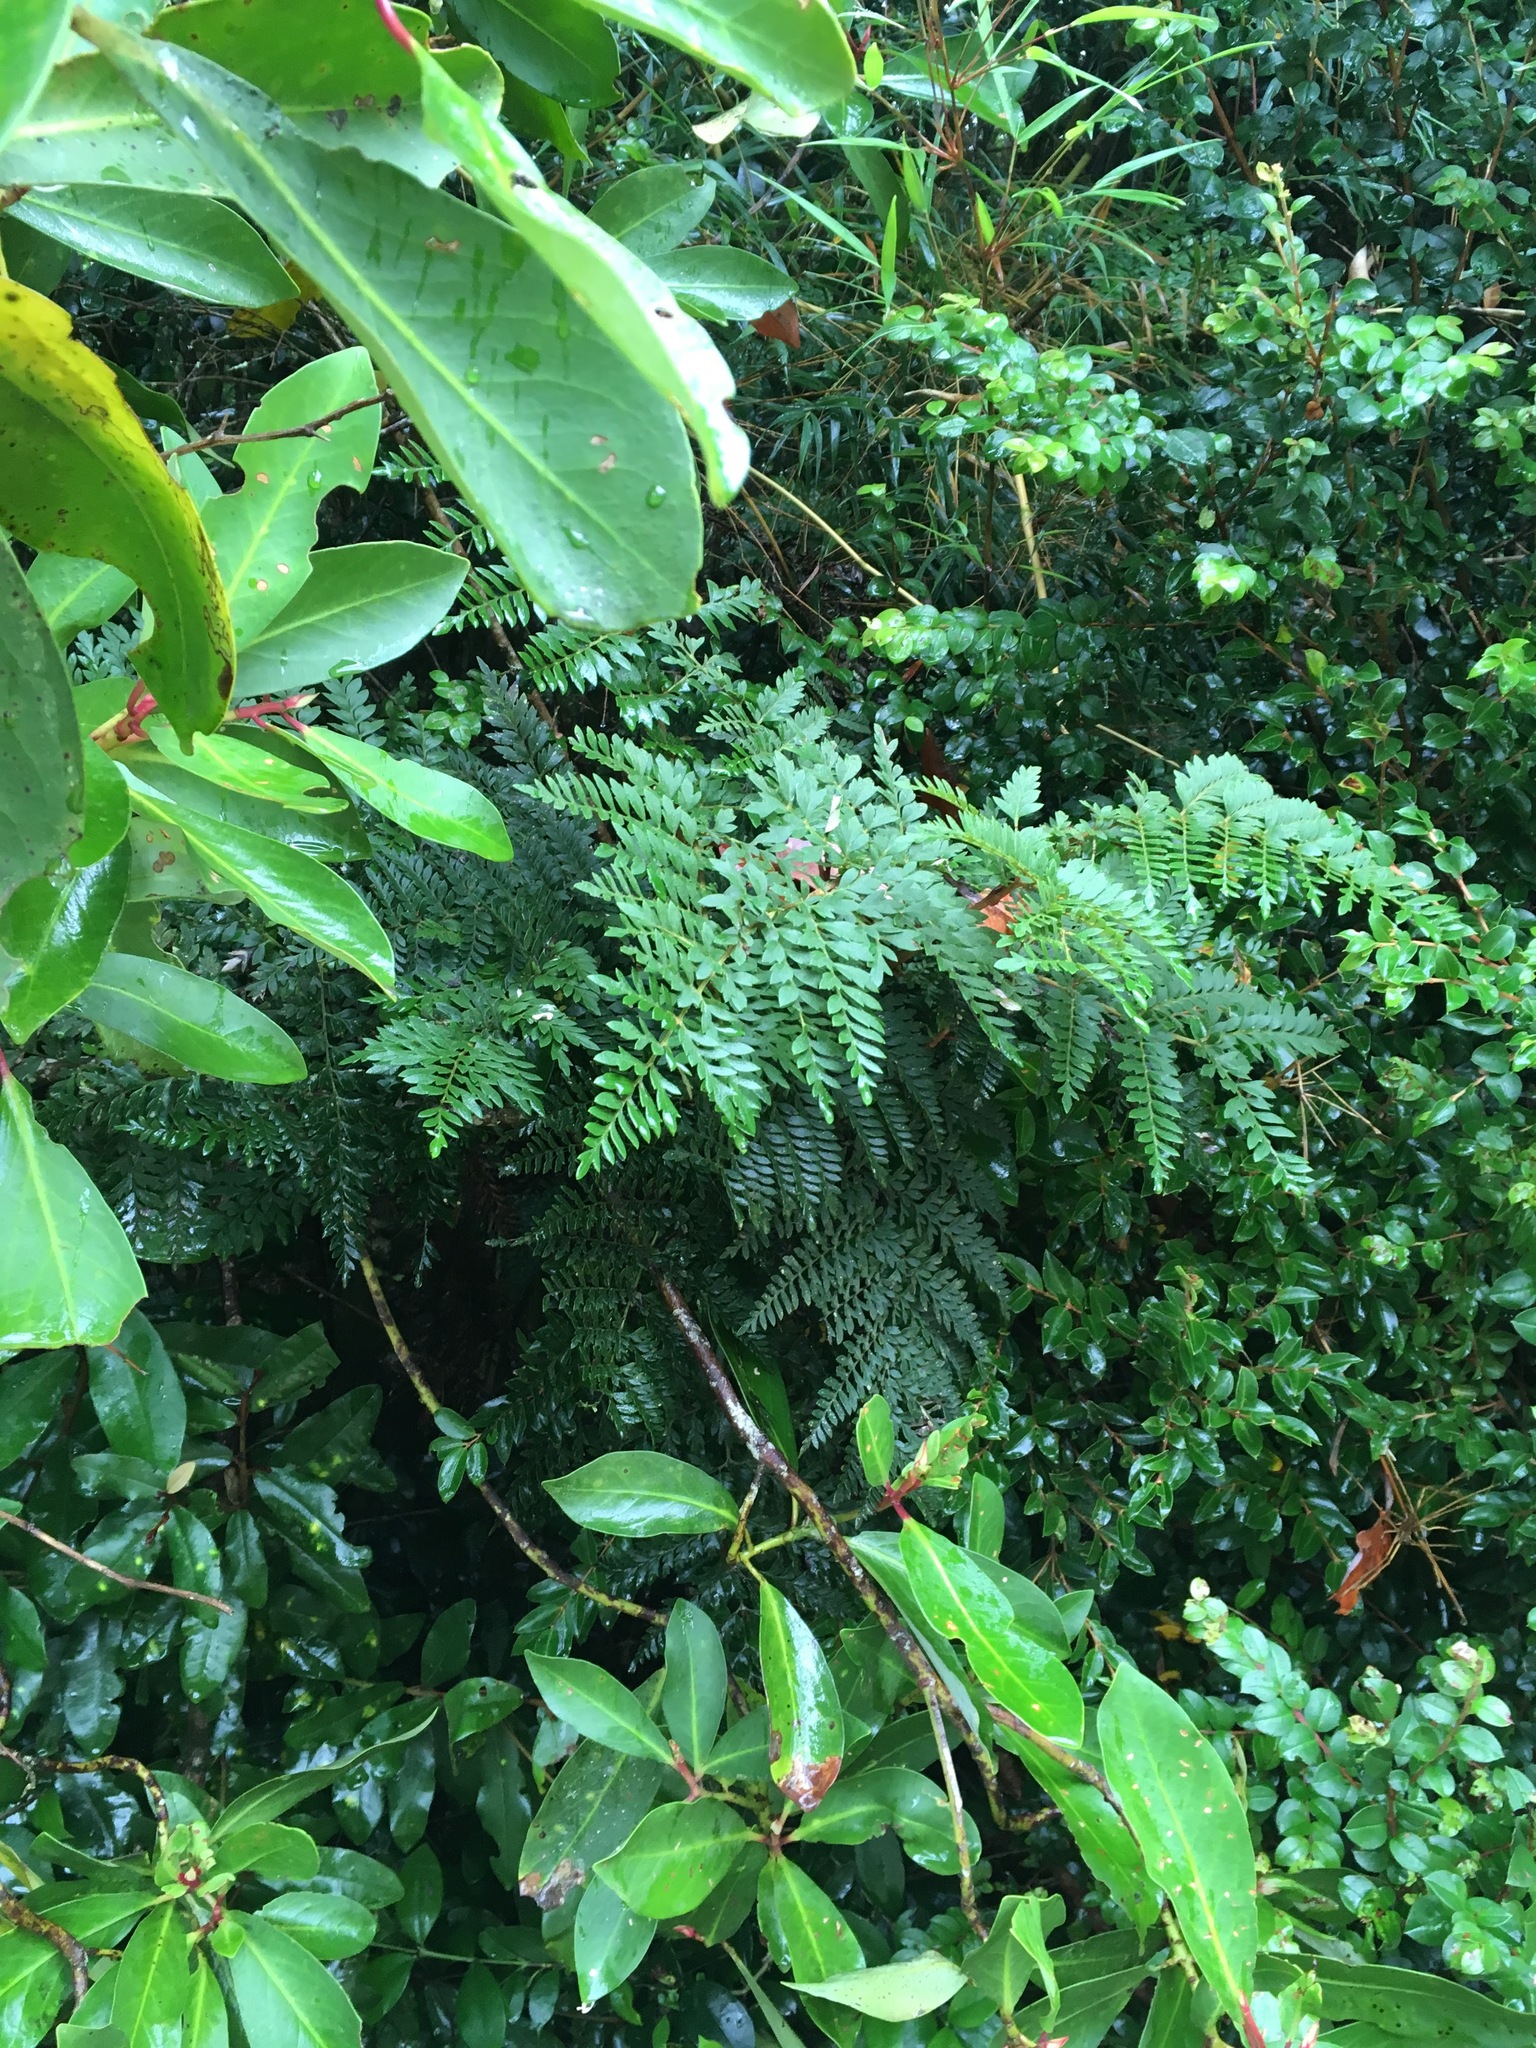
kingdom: Plantae
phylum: Tracheophyta
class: Magnoliopsida
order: Proteales
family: Proteaceae
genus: Lomatia
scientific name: Lomatia ferruginea
